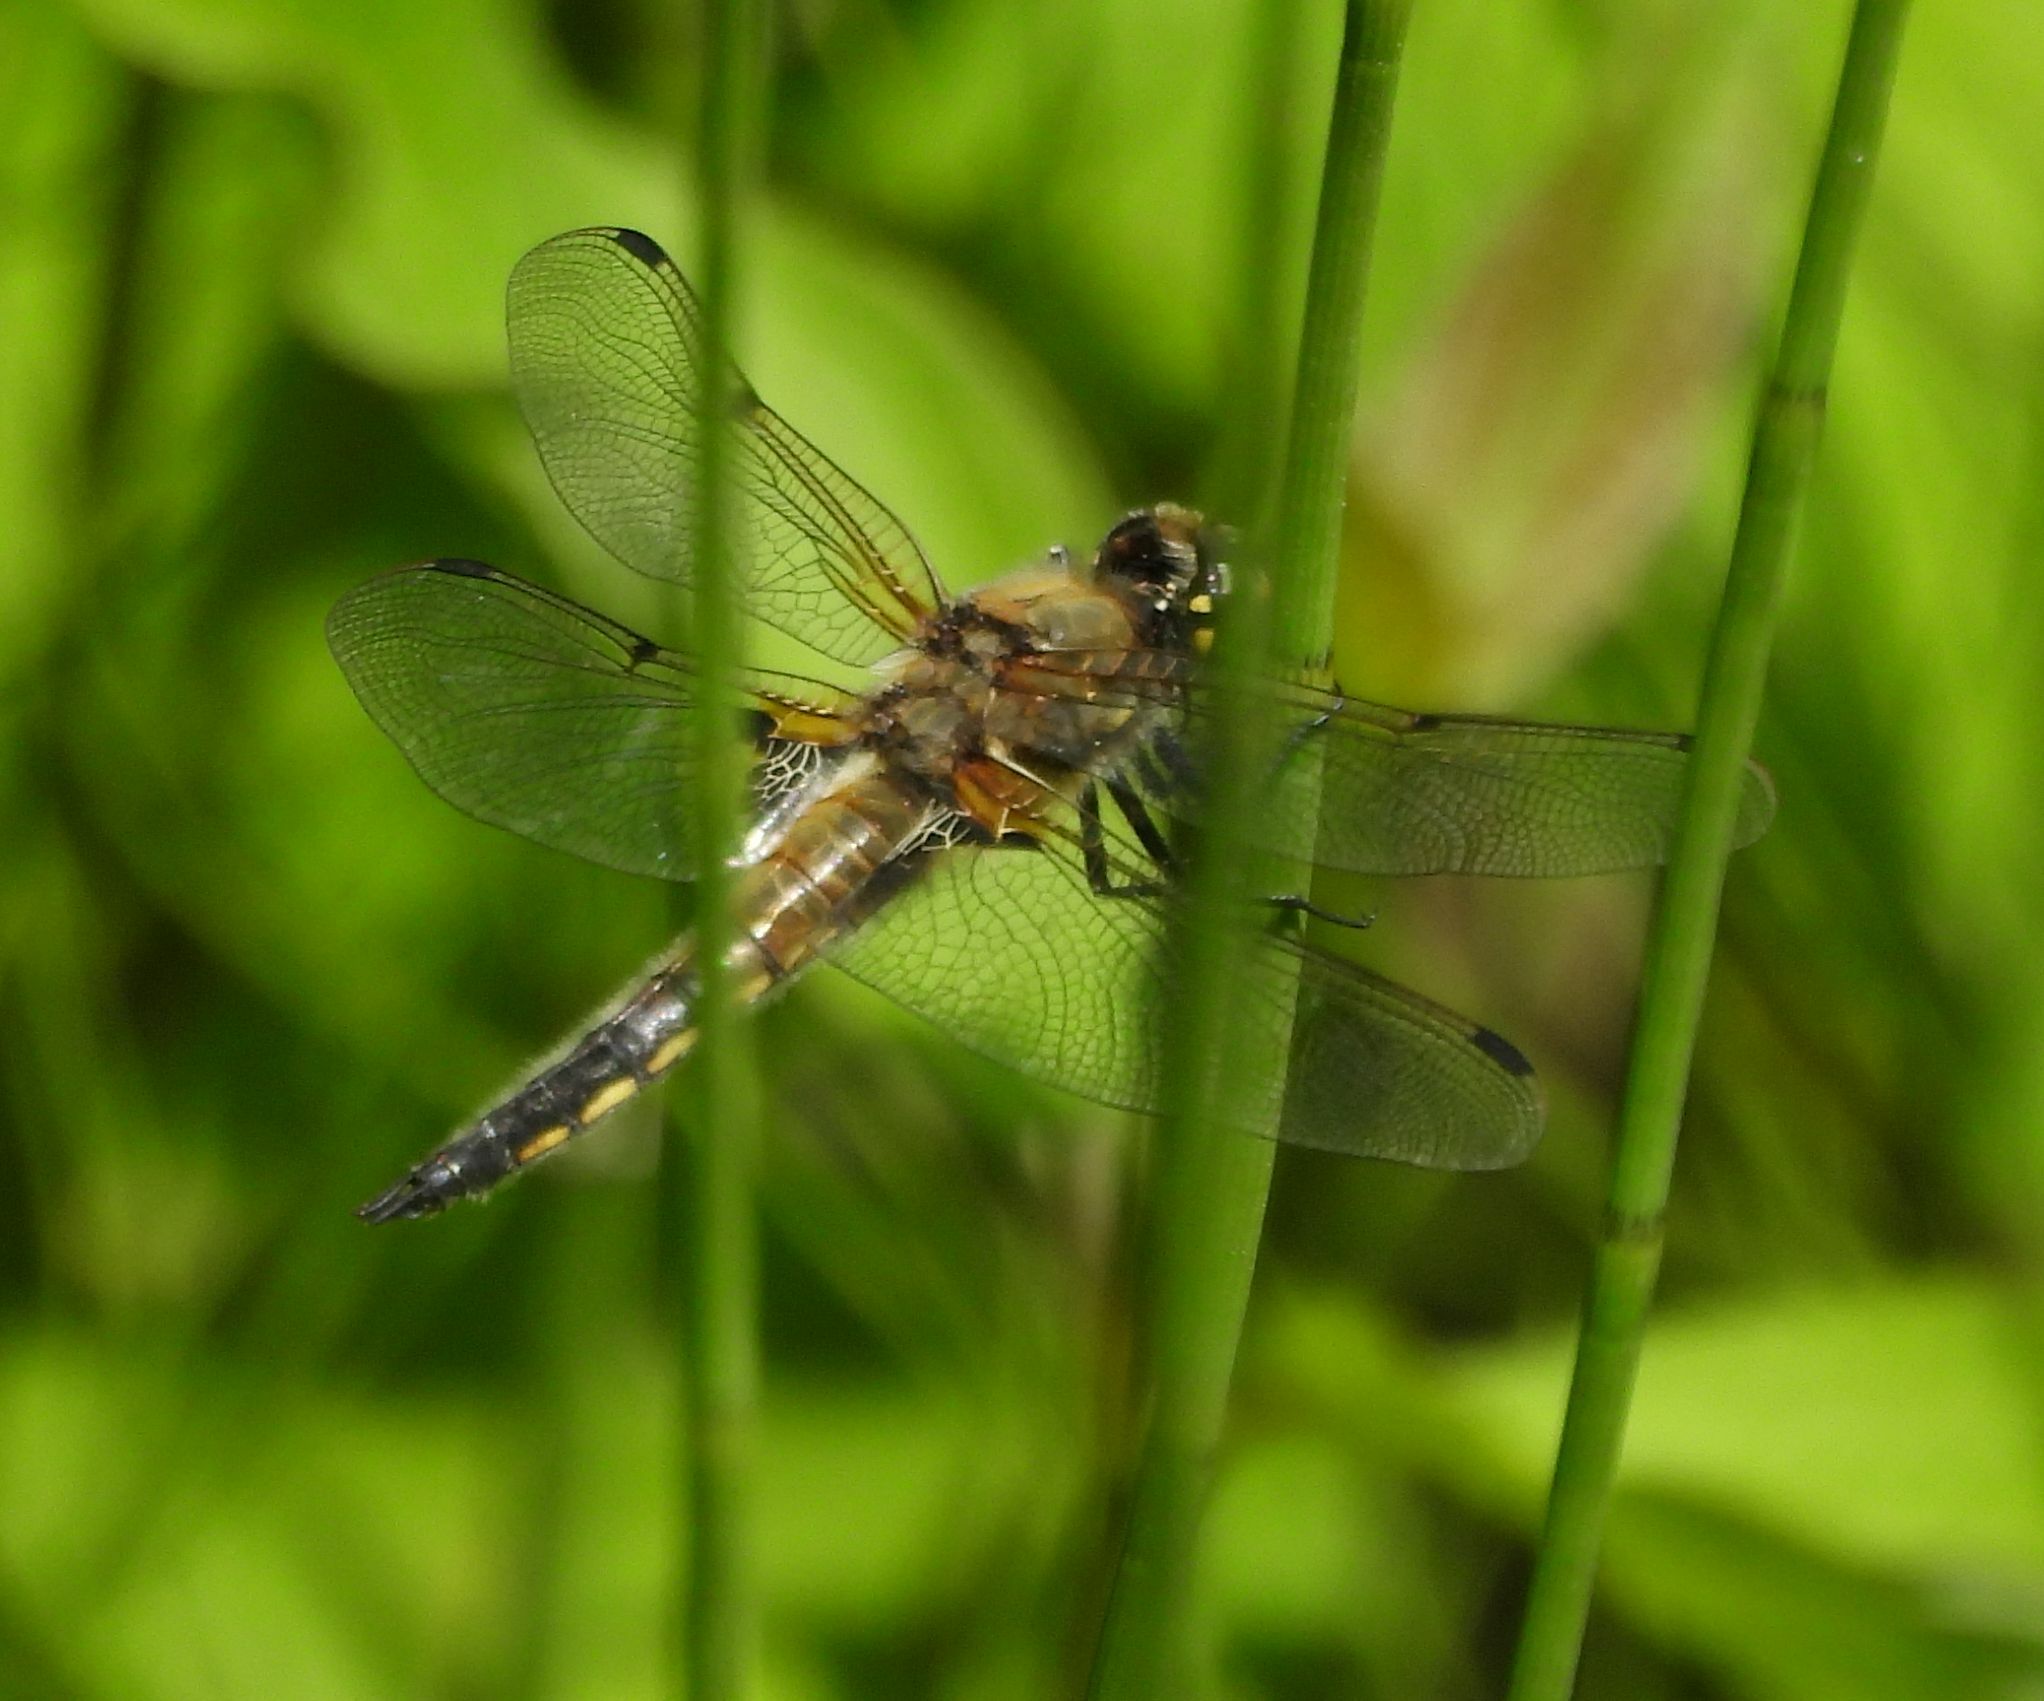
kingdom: Animalia
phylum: Arthropoda
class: Insecta
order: Odonata
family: Libellulidae
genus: Libellula
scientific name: Libellula quadrimaculata
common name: Four-spotted chaser
